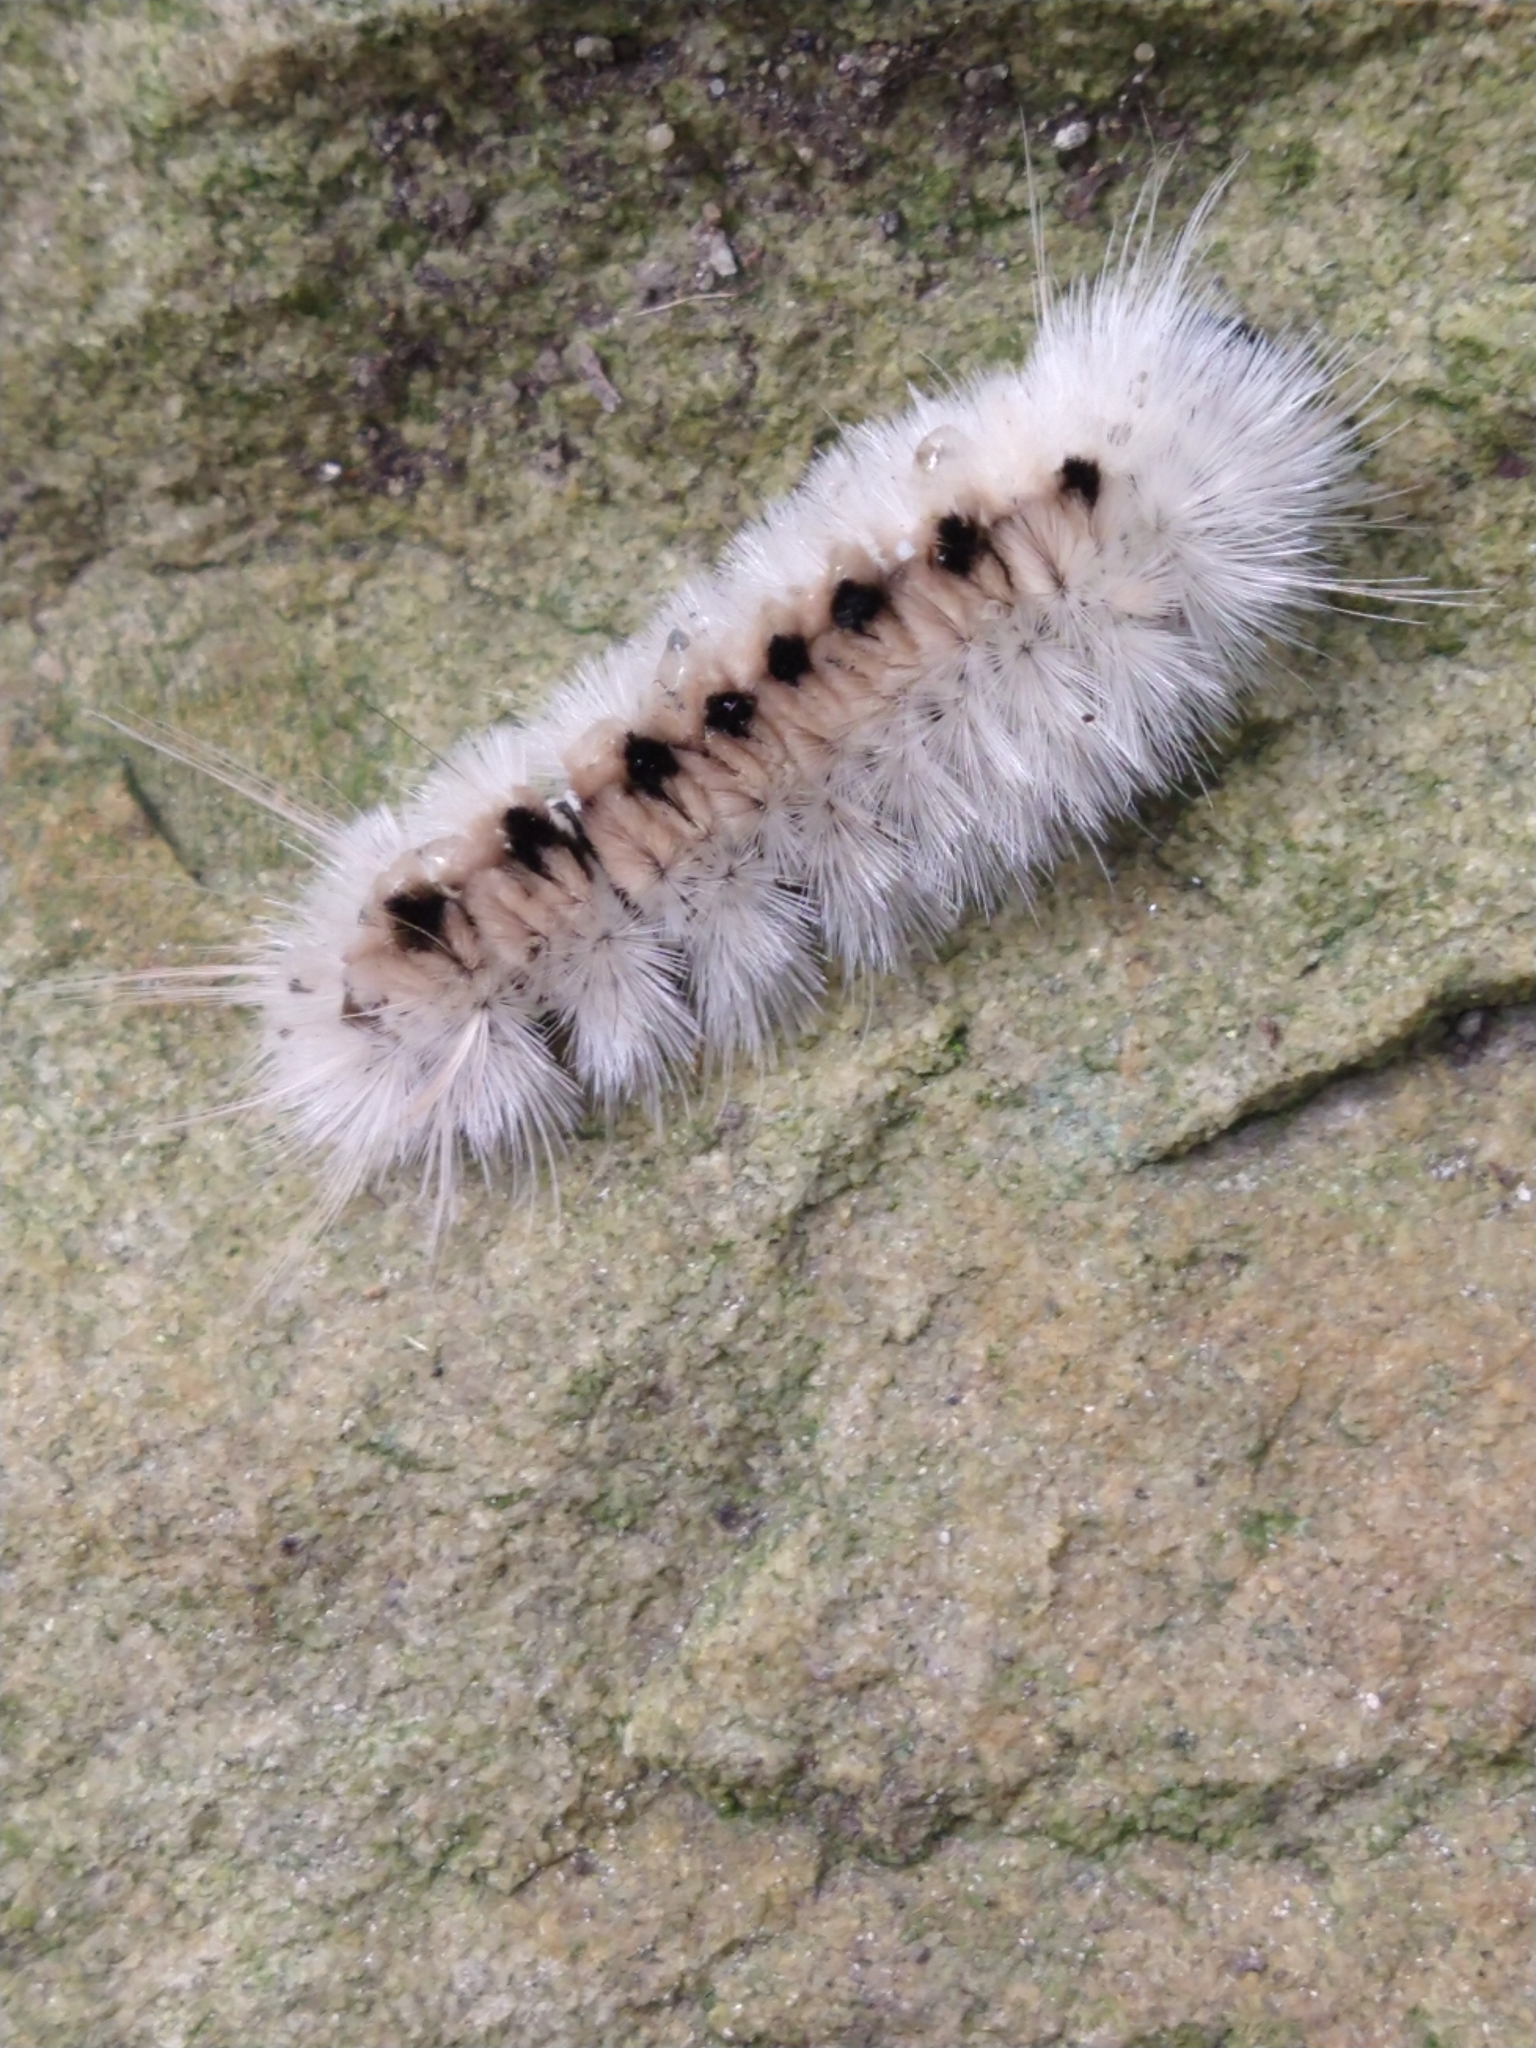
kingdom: Animalia
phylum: Arthropoda
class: Insecta
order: Lepidoptera
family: Erebidae
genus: Lophocampa
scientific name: Lophocampa caryae
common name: Hickory tussock moth
